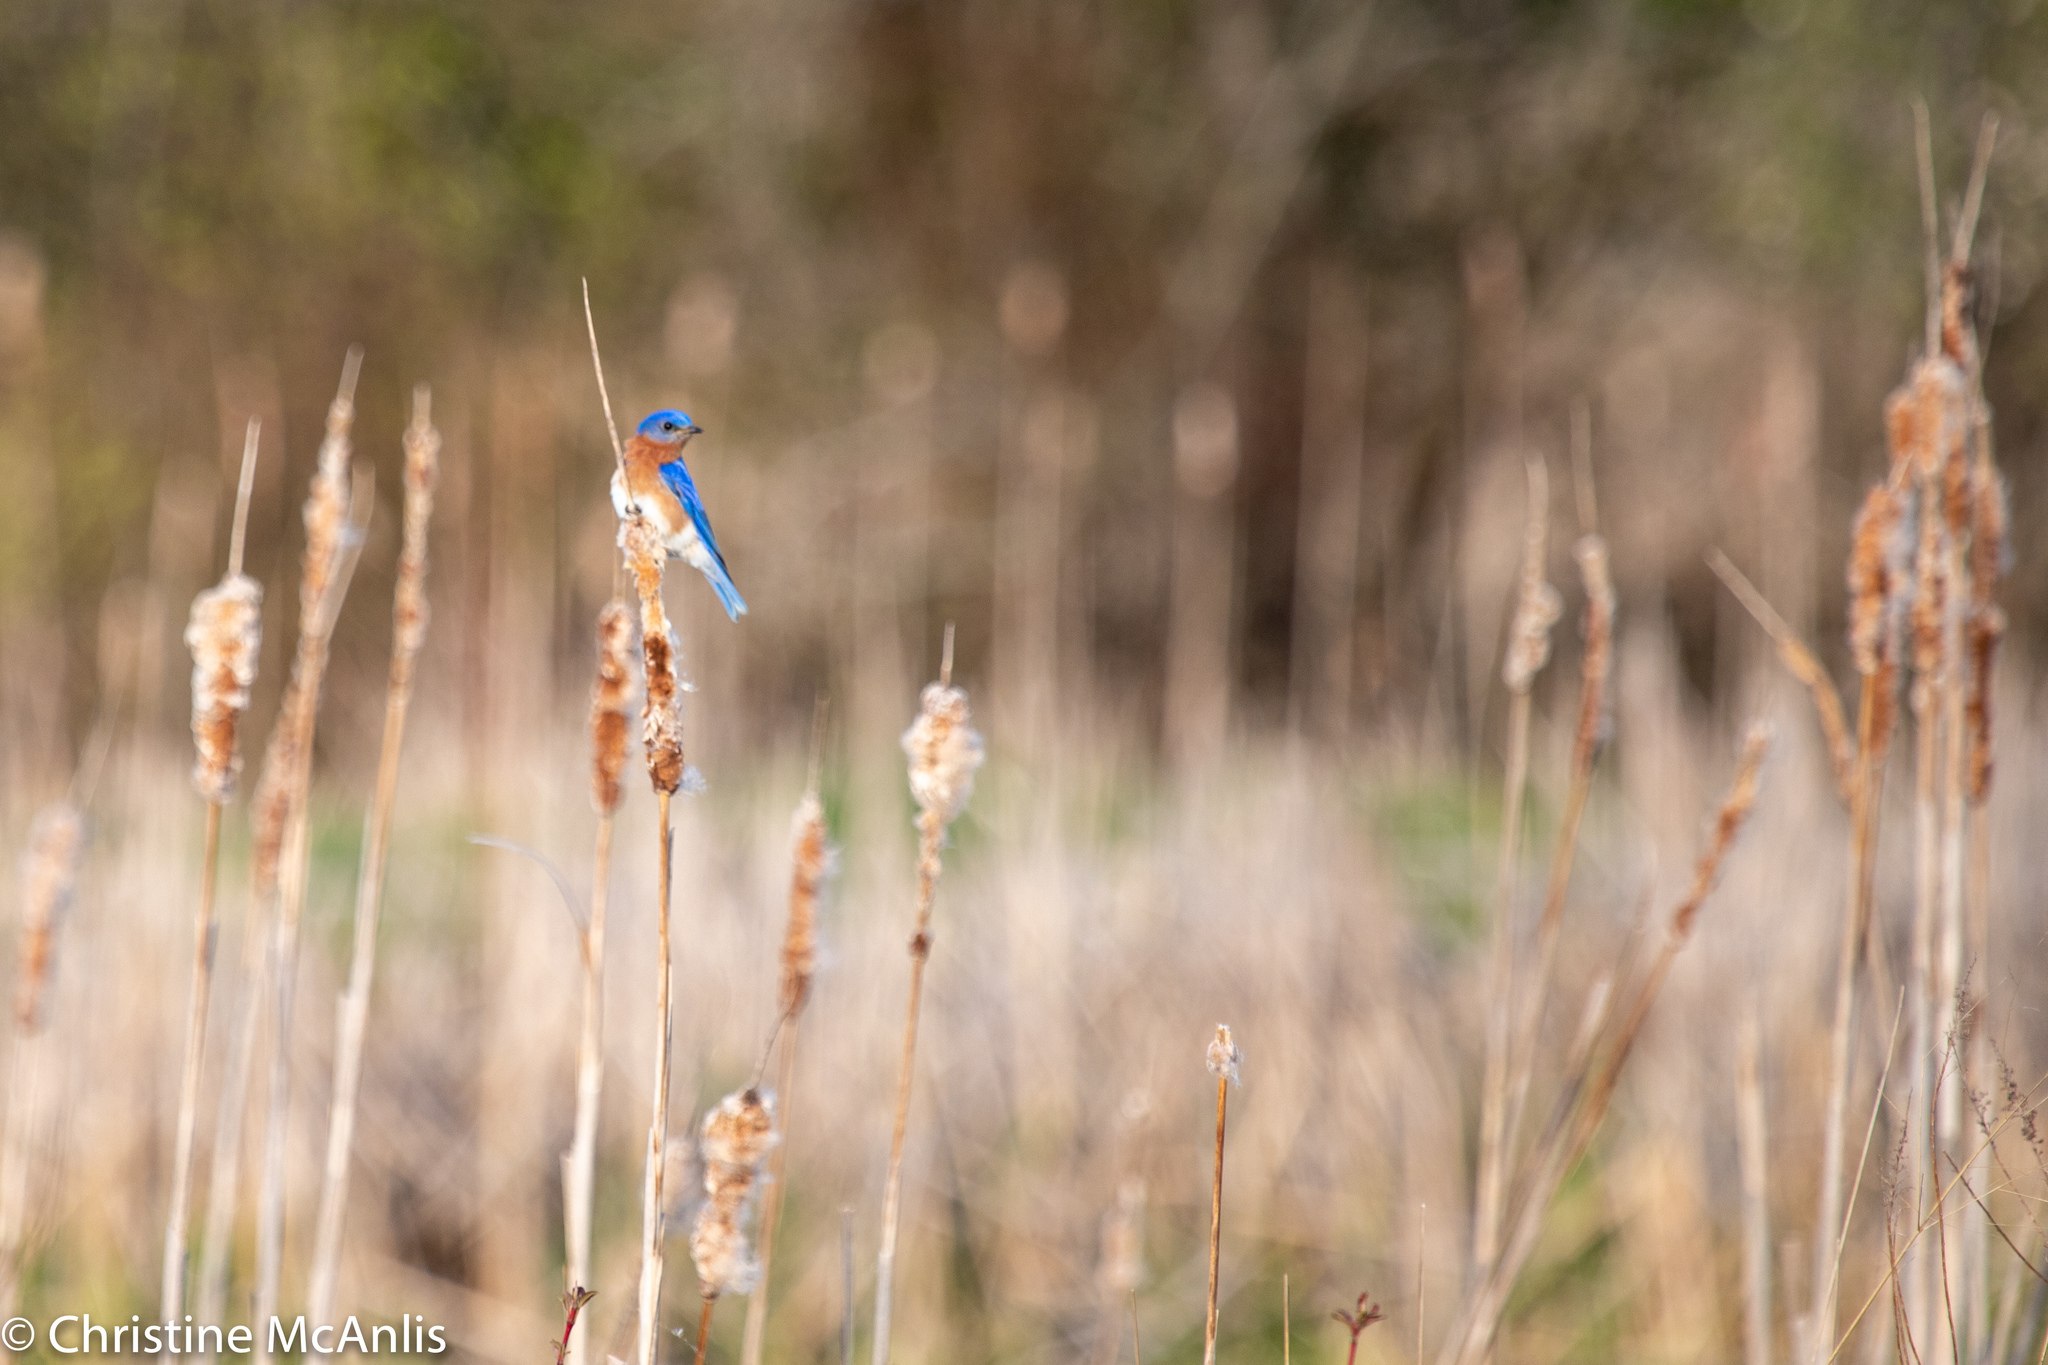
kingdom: Animalia
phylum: Chordata
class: Aves
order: Passeriformes
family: Turdidae
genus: Sialia
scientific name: Sialia sialis
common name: Eastern bluebird
